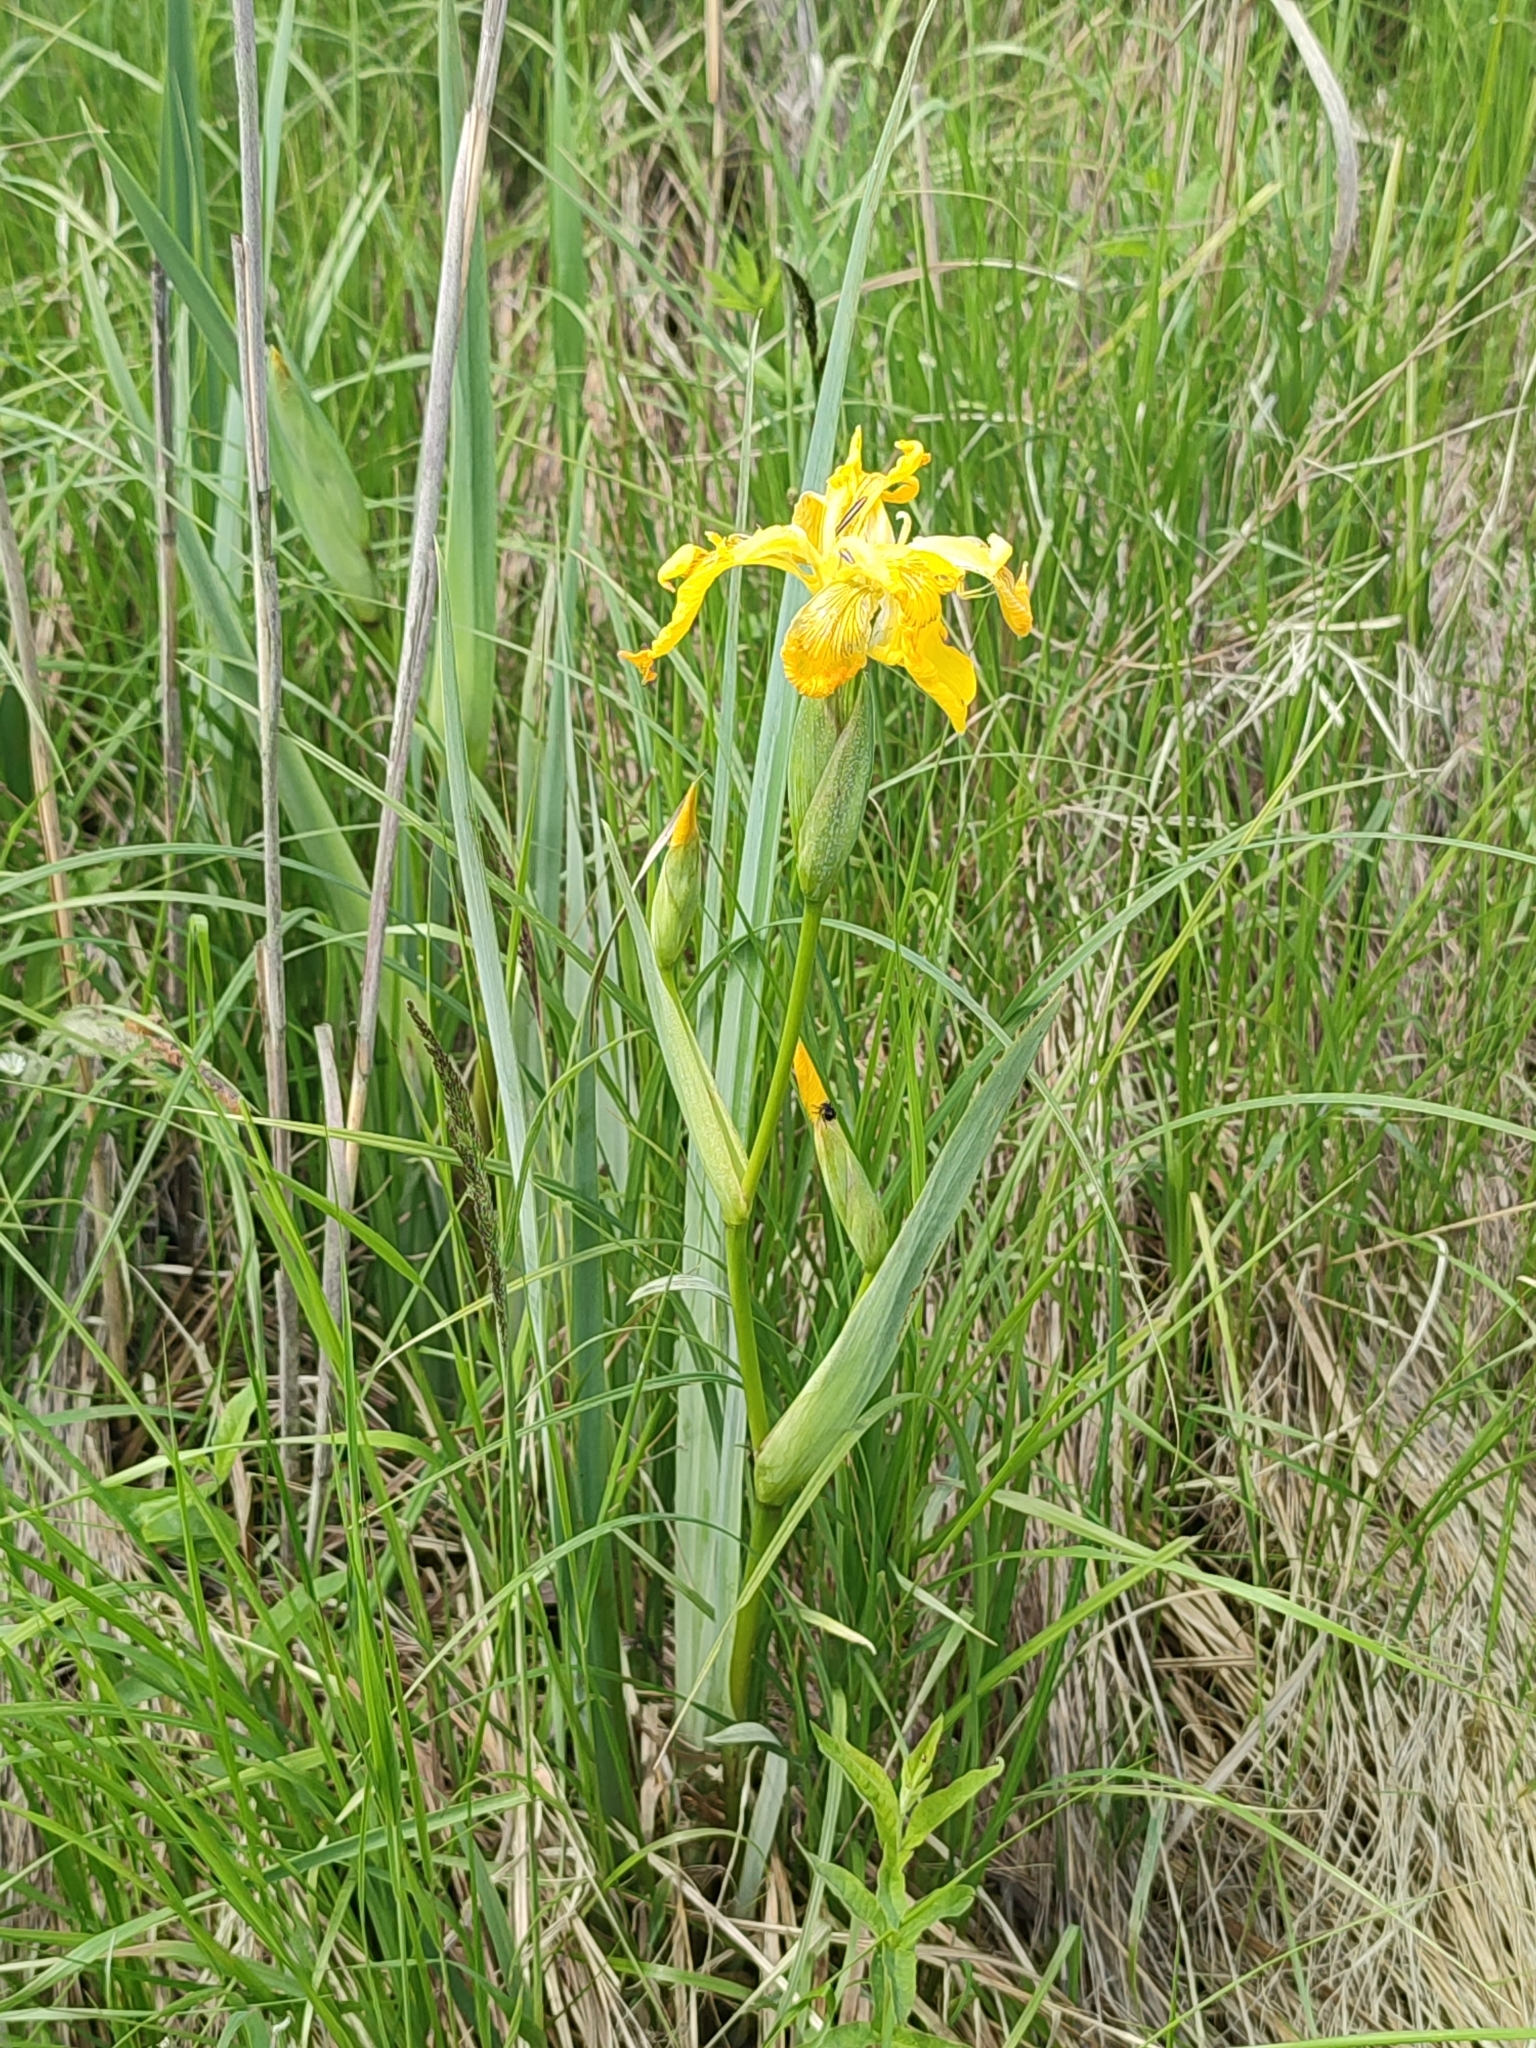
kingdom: Plantae
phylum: Tracheophyta
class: Liliopsida
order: Asparagales
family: Iridaceae
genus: Iris
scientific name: Iris pseudacorus
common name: Yellow flag
